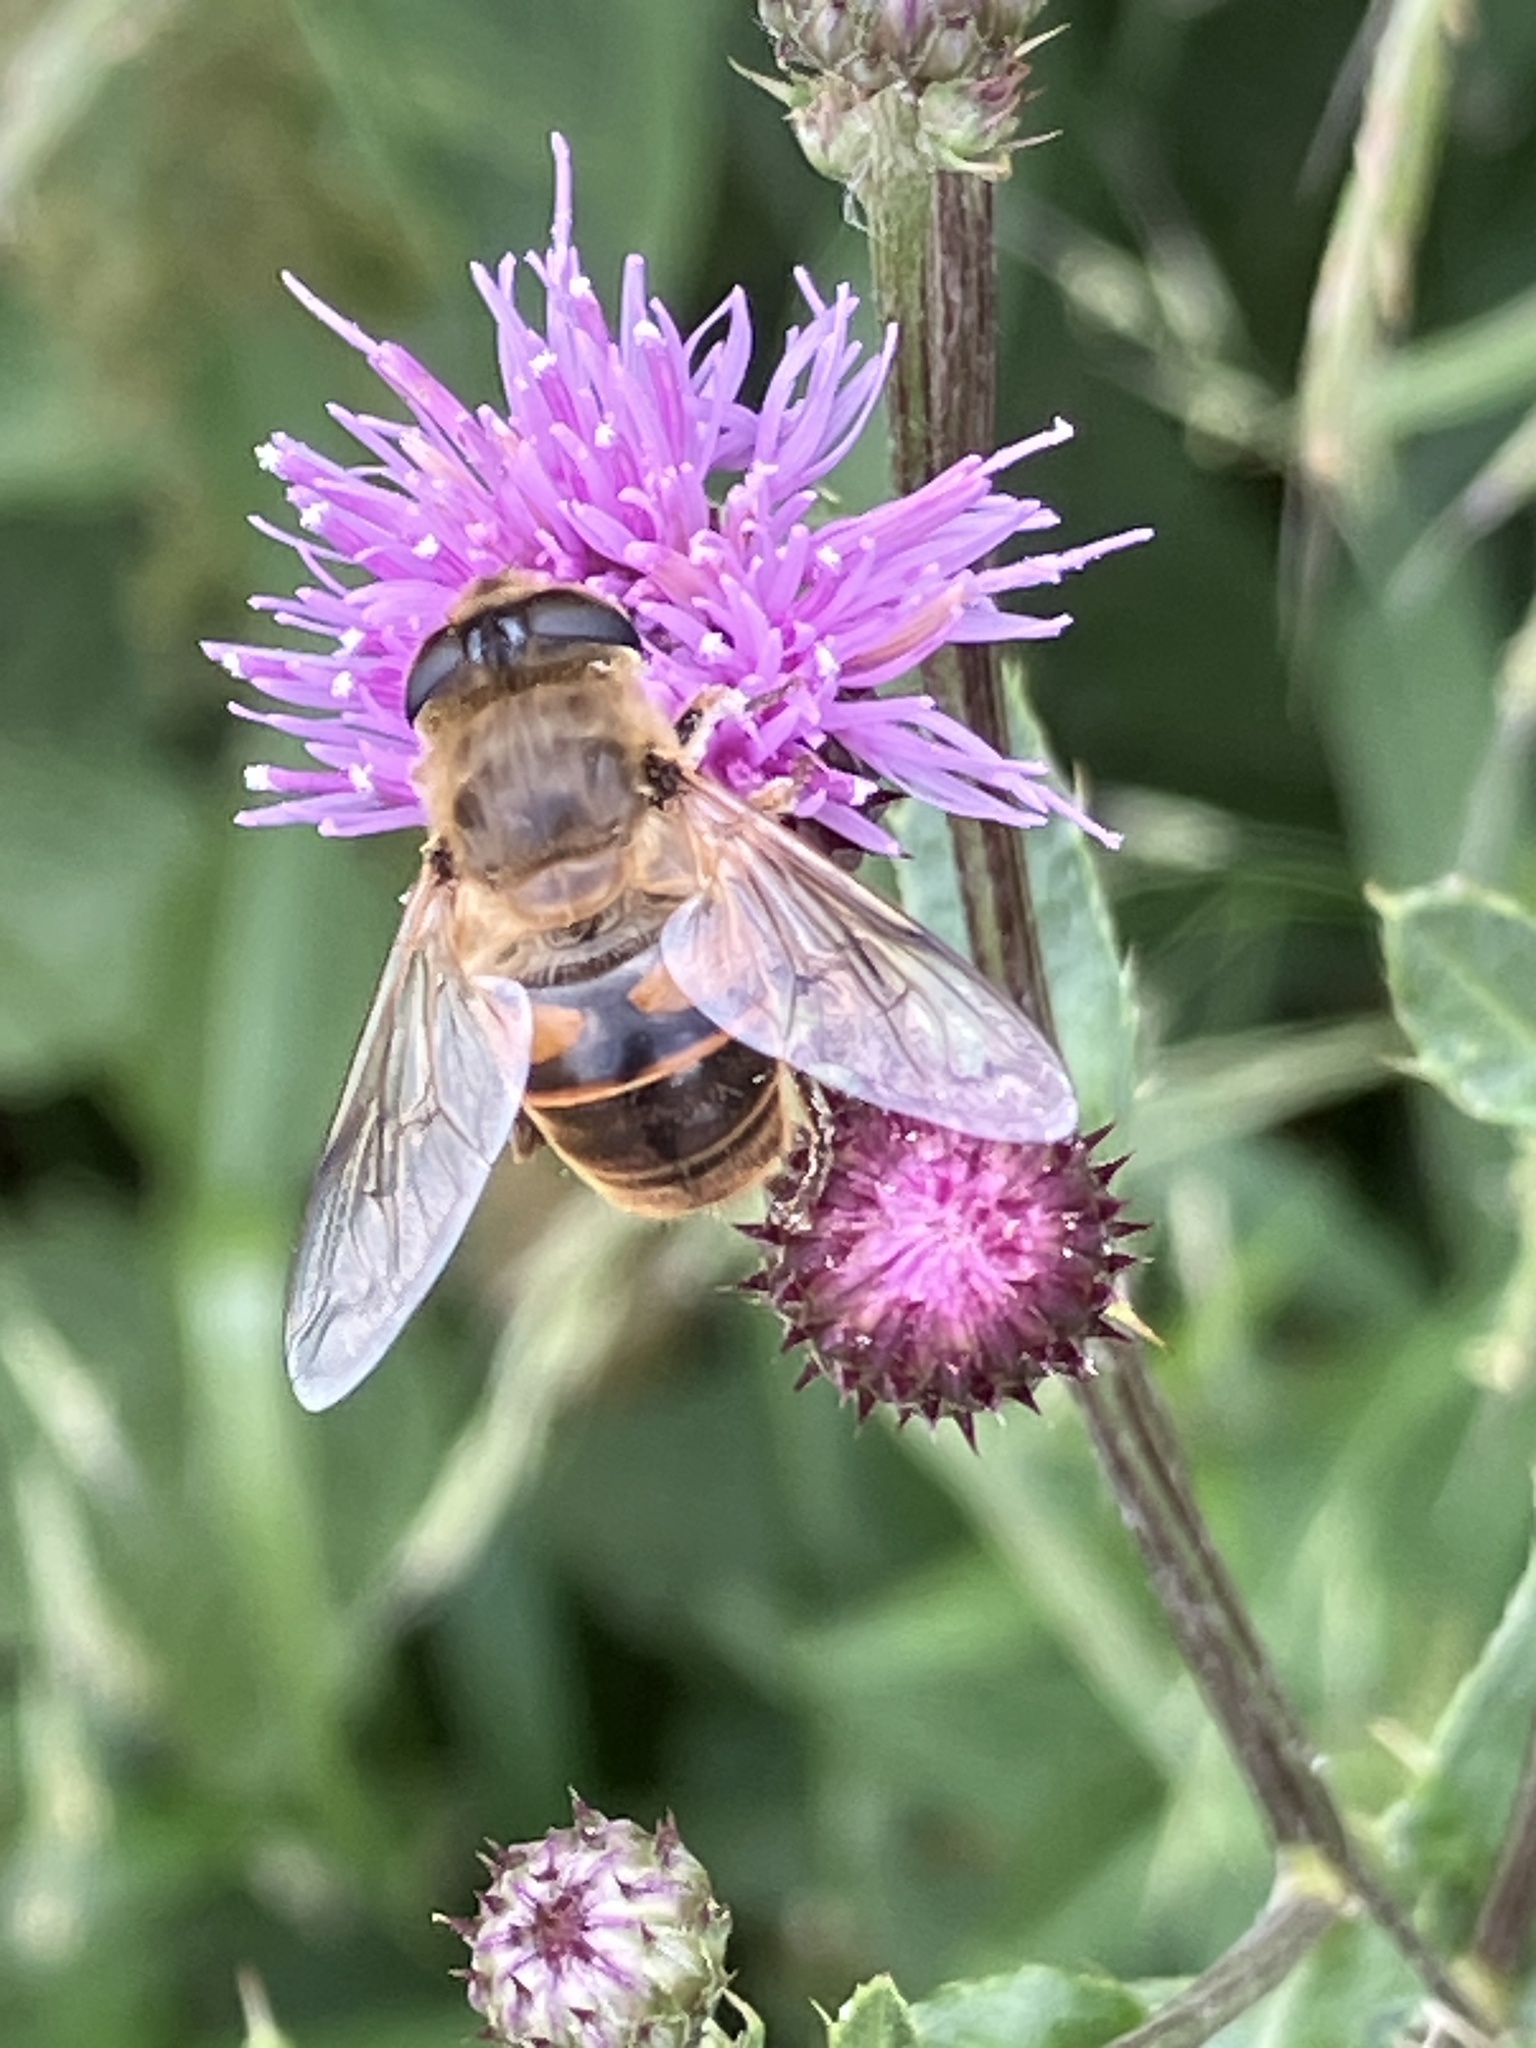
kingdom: Animalia
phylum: Arthropoda
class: Insecta
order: Diptera
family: Syrphidae
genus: Eristalis
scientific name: Eristalis tenax
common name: Drone fly
